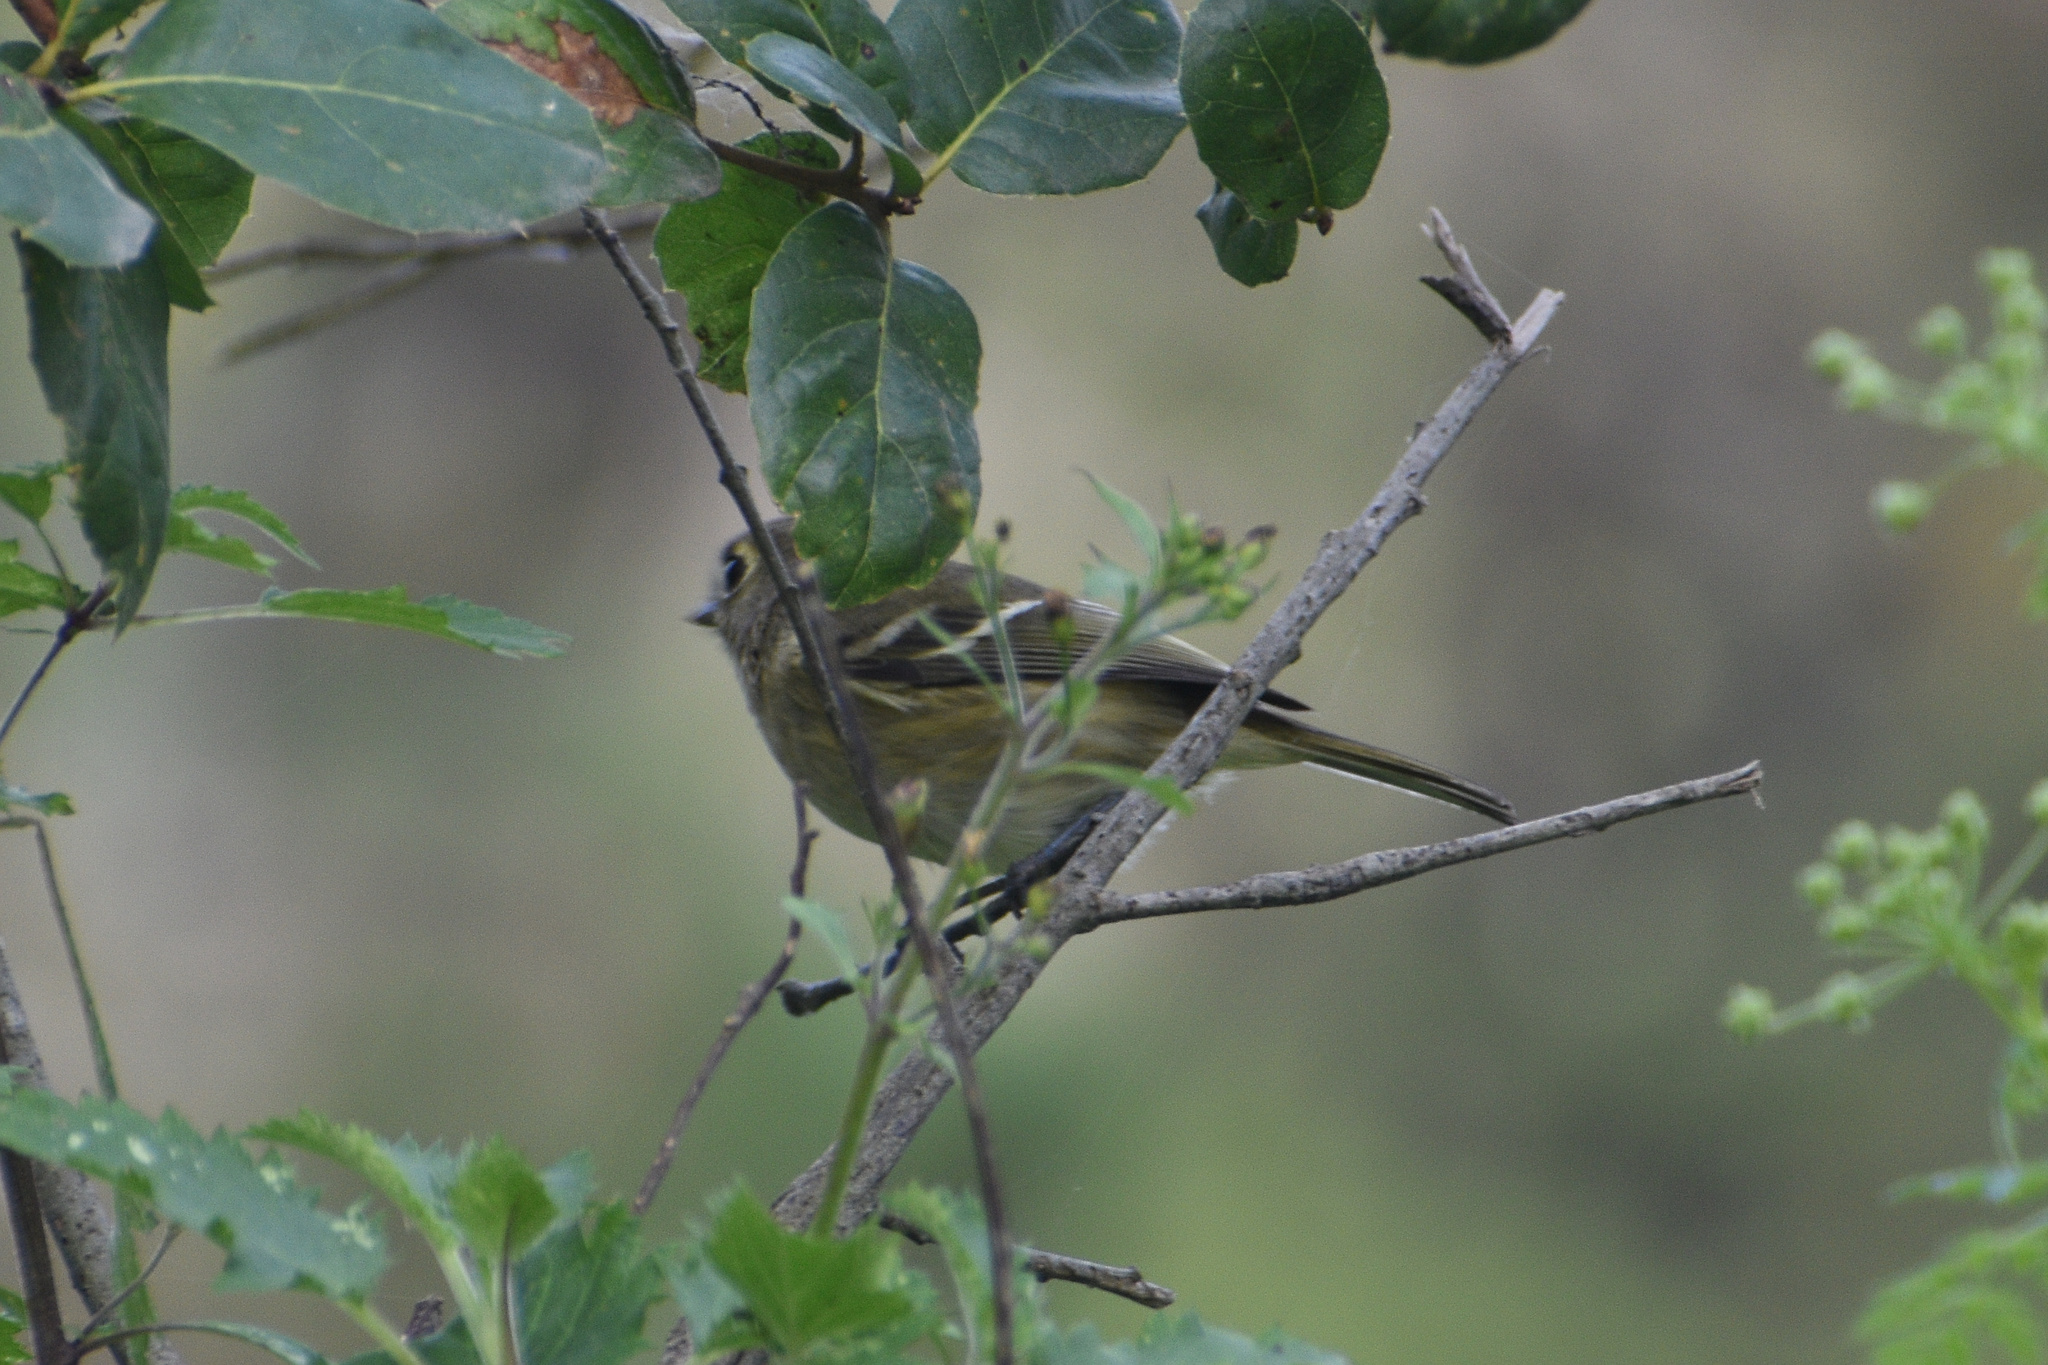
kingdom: Animalia
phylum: Chordata
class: Aves
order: Passeriformes
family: Vireonidae
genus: Vireo
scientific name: Vireo huttoni
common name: Hutton's vireo
